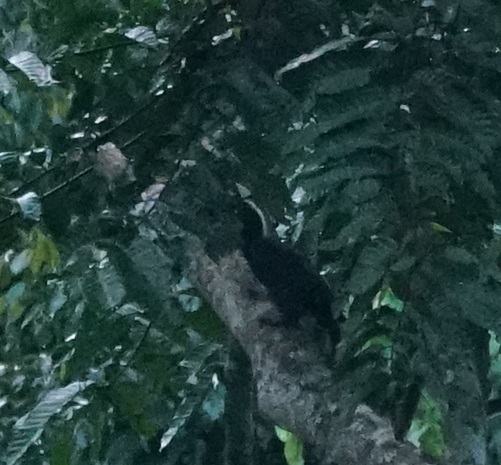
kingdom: Animalia
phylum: Chordata
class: Aves
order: Bucerotiformes
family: Bucerotidae
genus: Anthracoceros
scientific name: Anthracoceros malayanus
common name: Black hornbill
